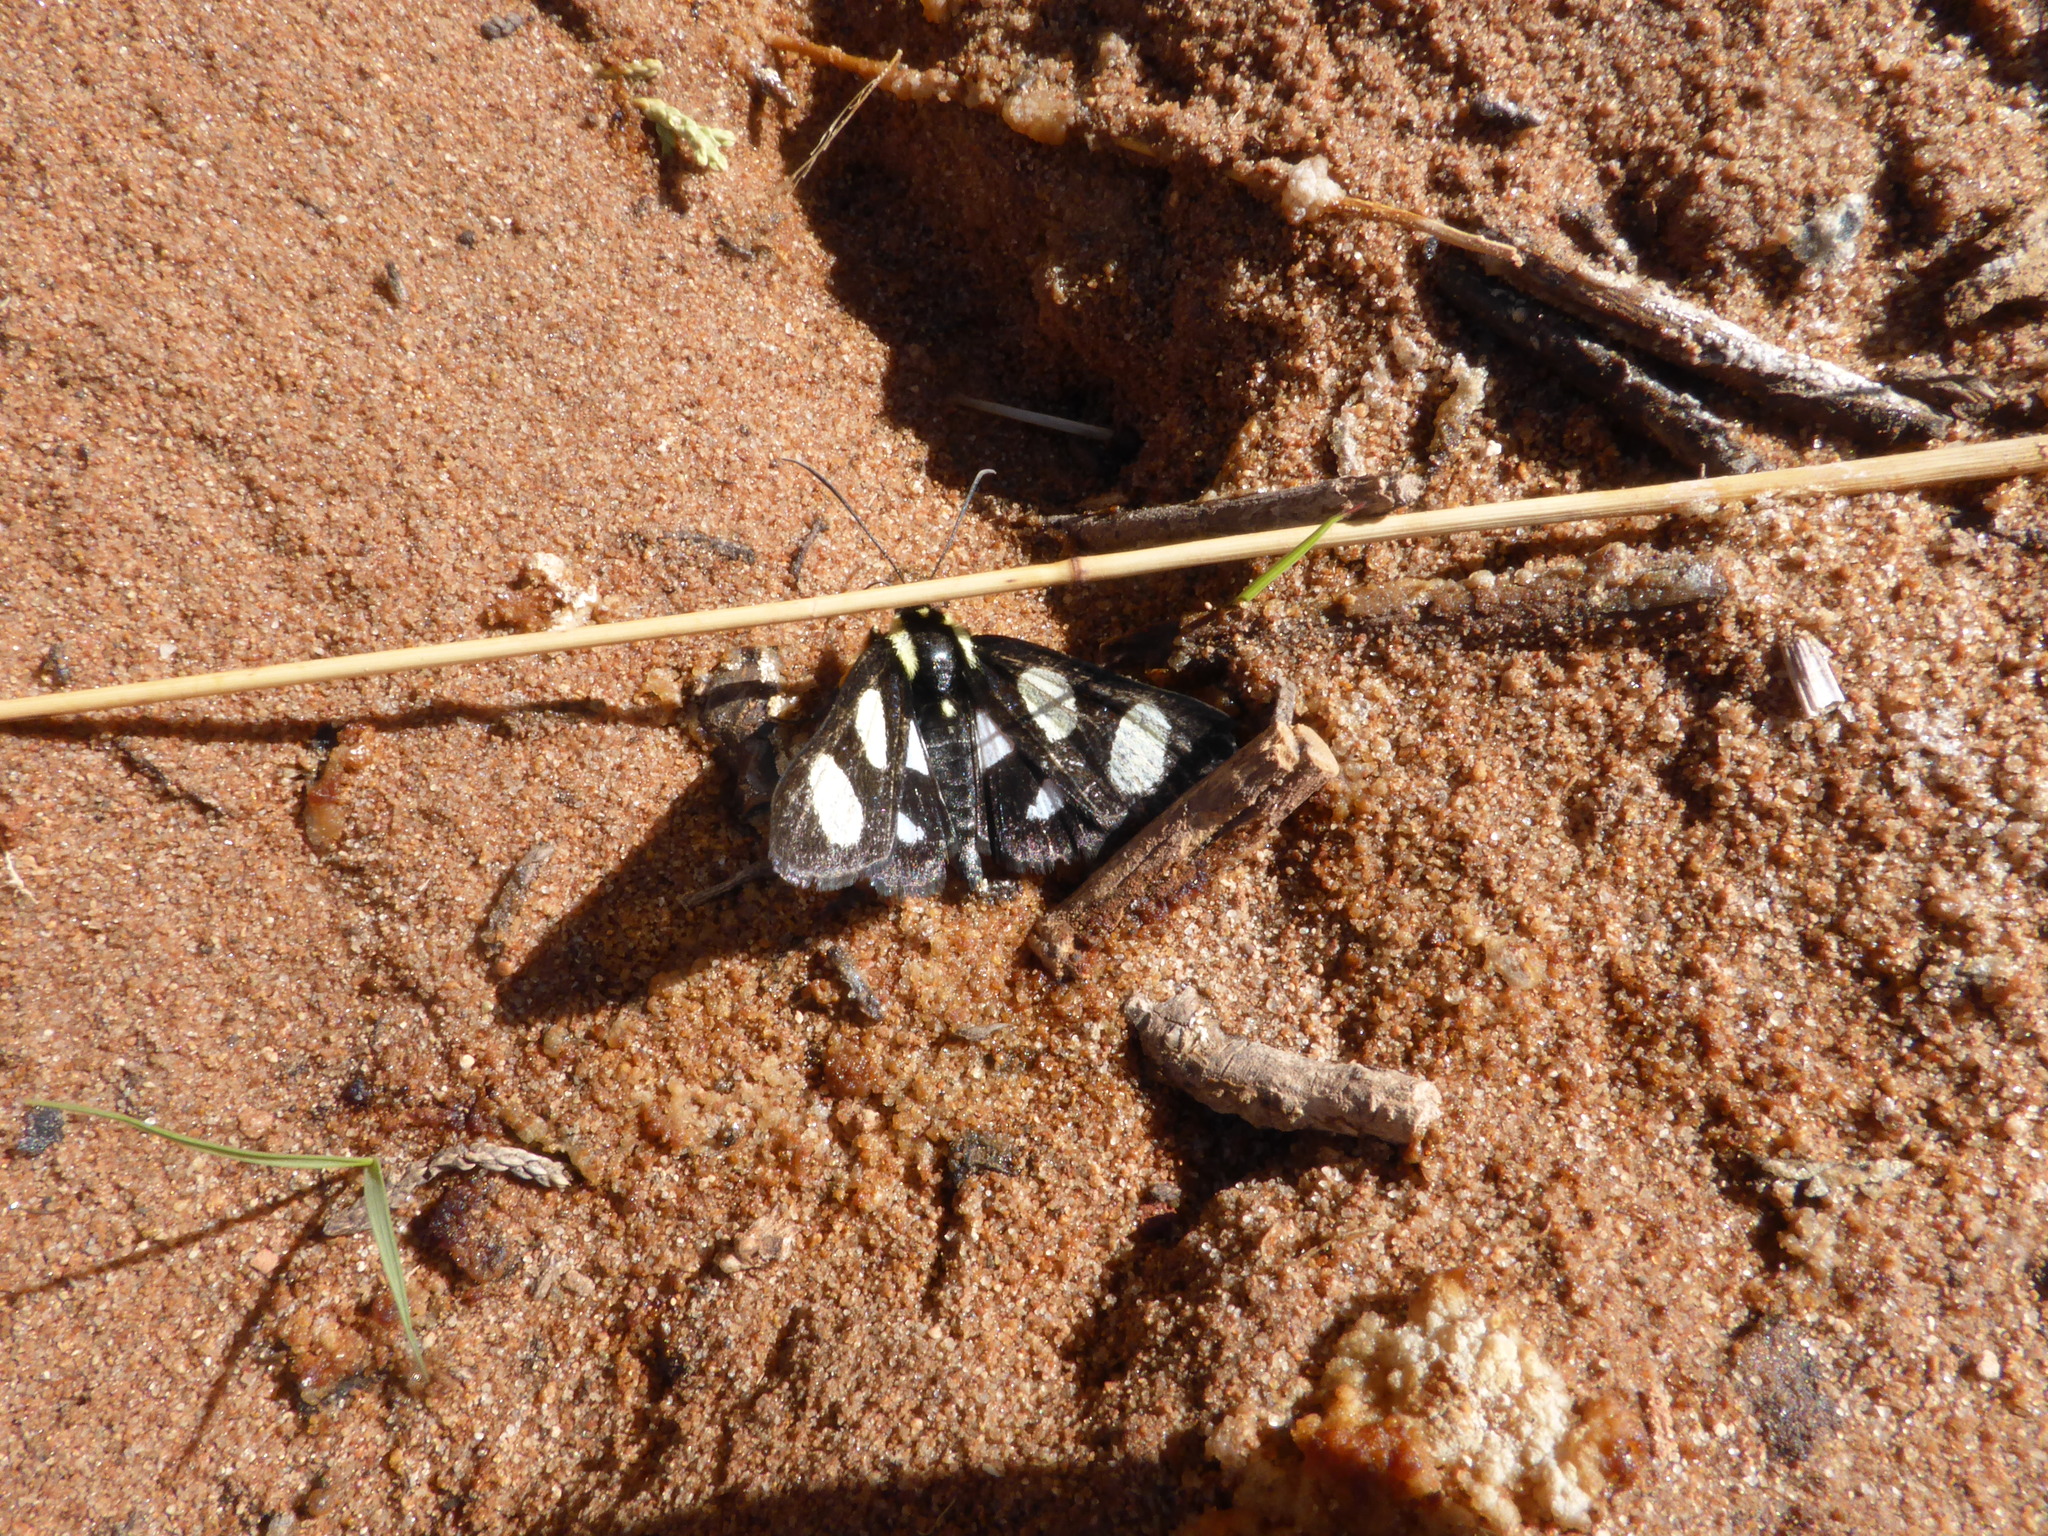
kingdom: Animalia
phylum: Arthropoda
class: Insecta
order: Lepidoptera
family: Noctuidae
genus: Alypia
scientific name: Alypia octomaculata
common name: Eight-spotted forester
